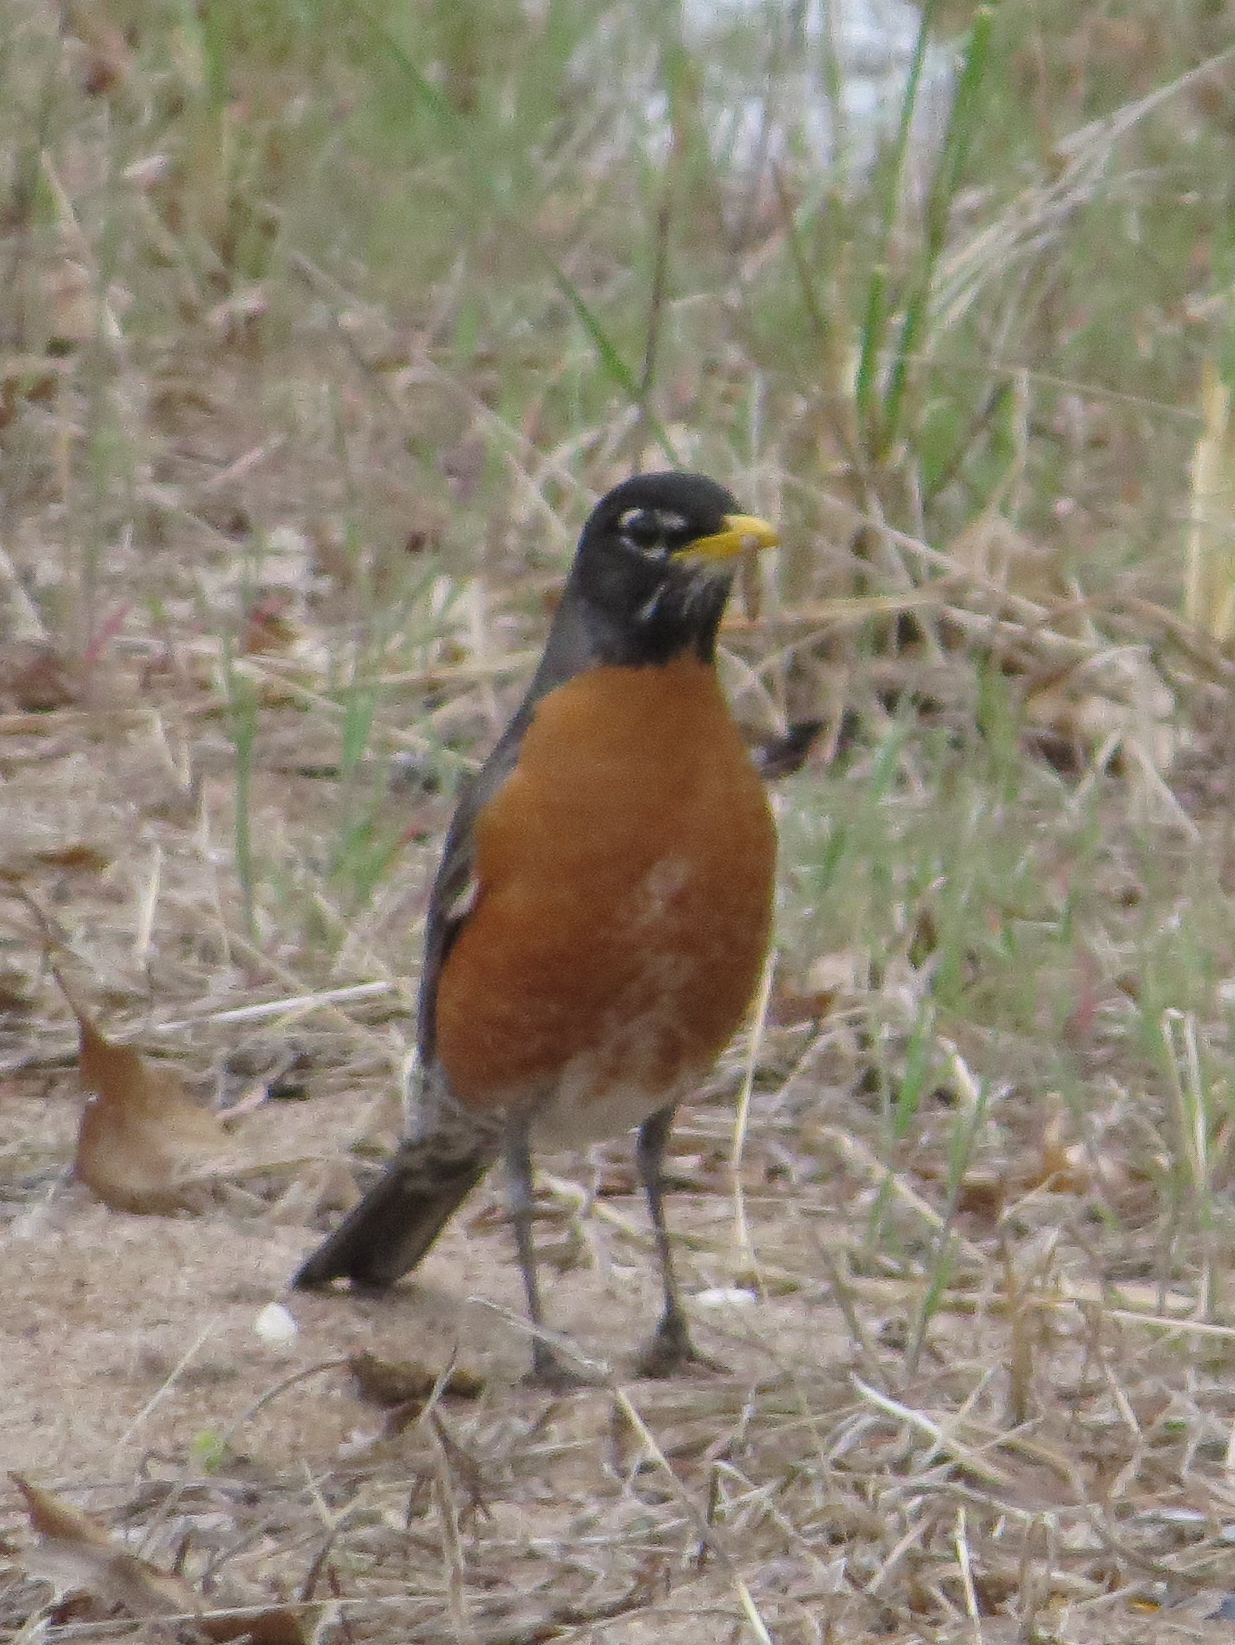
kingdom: Animalia
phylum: Chordata
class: Aves
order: Passeriformes
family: Turdidae
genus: Turdus
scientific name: Turdus migratorius
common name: American robin
